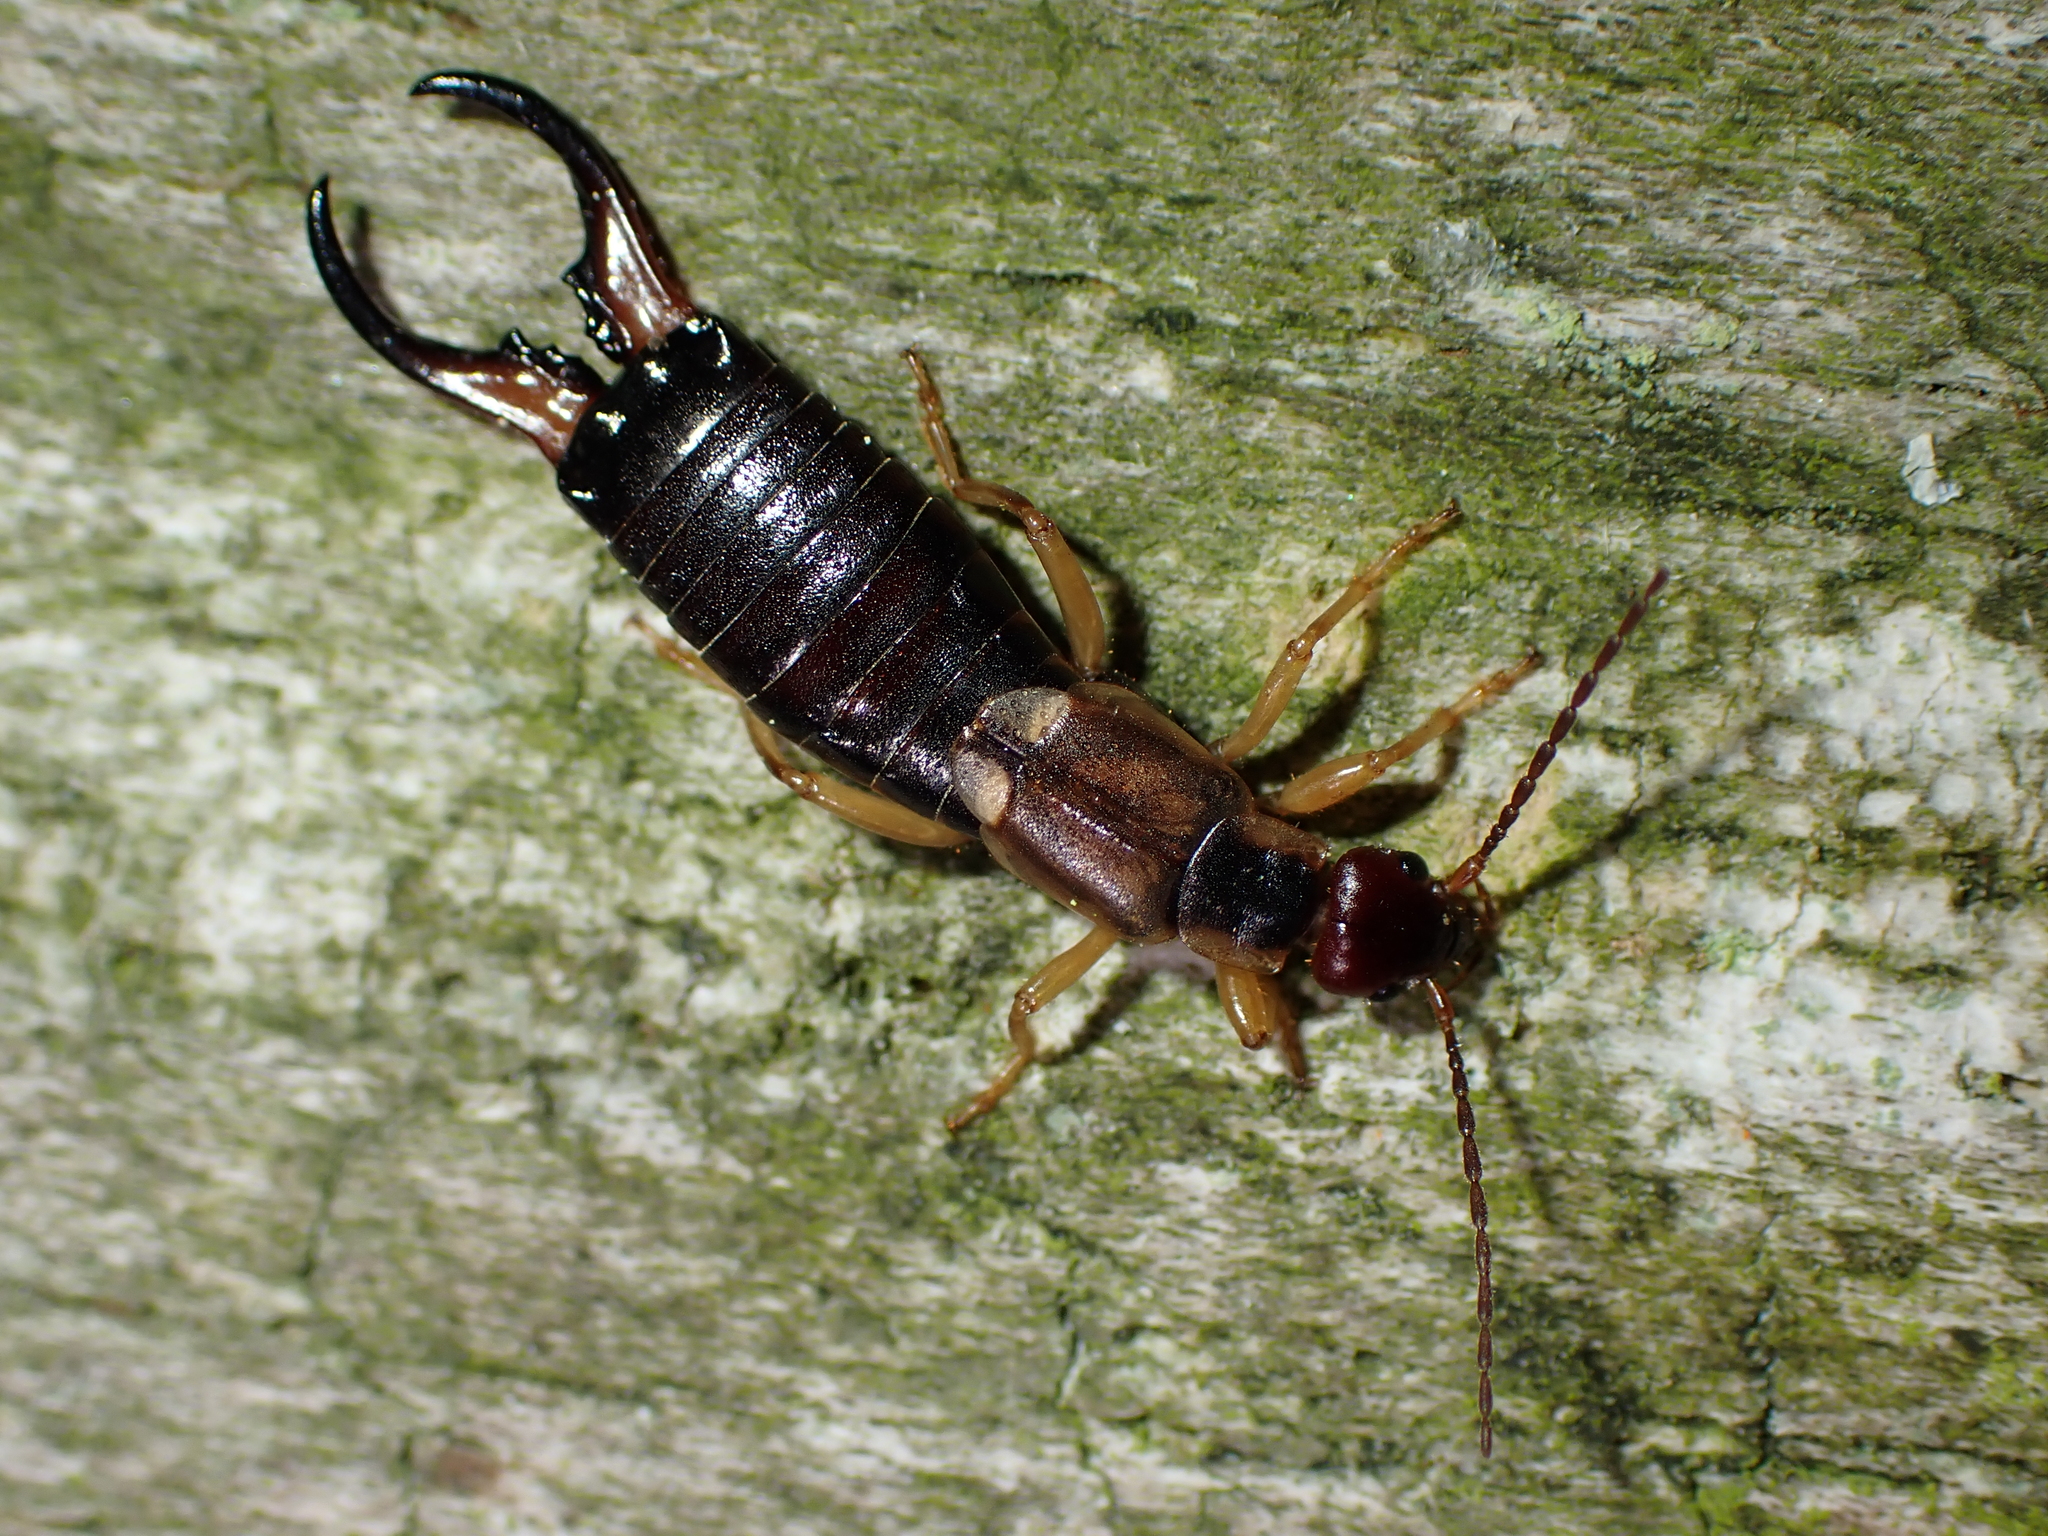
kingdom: Animalia
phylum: Arthropoda
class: Insecta
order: Dermaptera
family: Forficulidae
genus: Forficula
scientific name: Forficula
